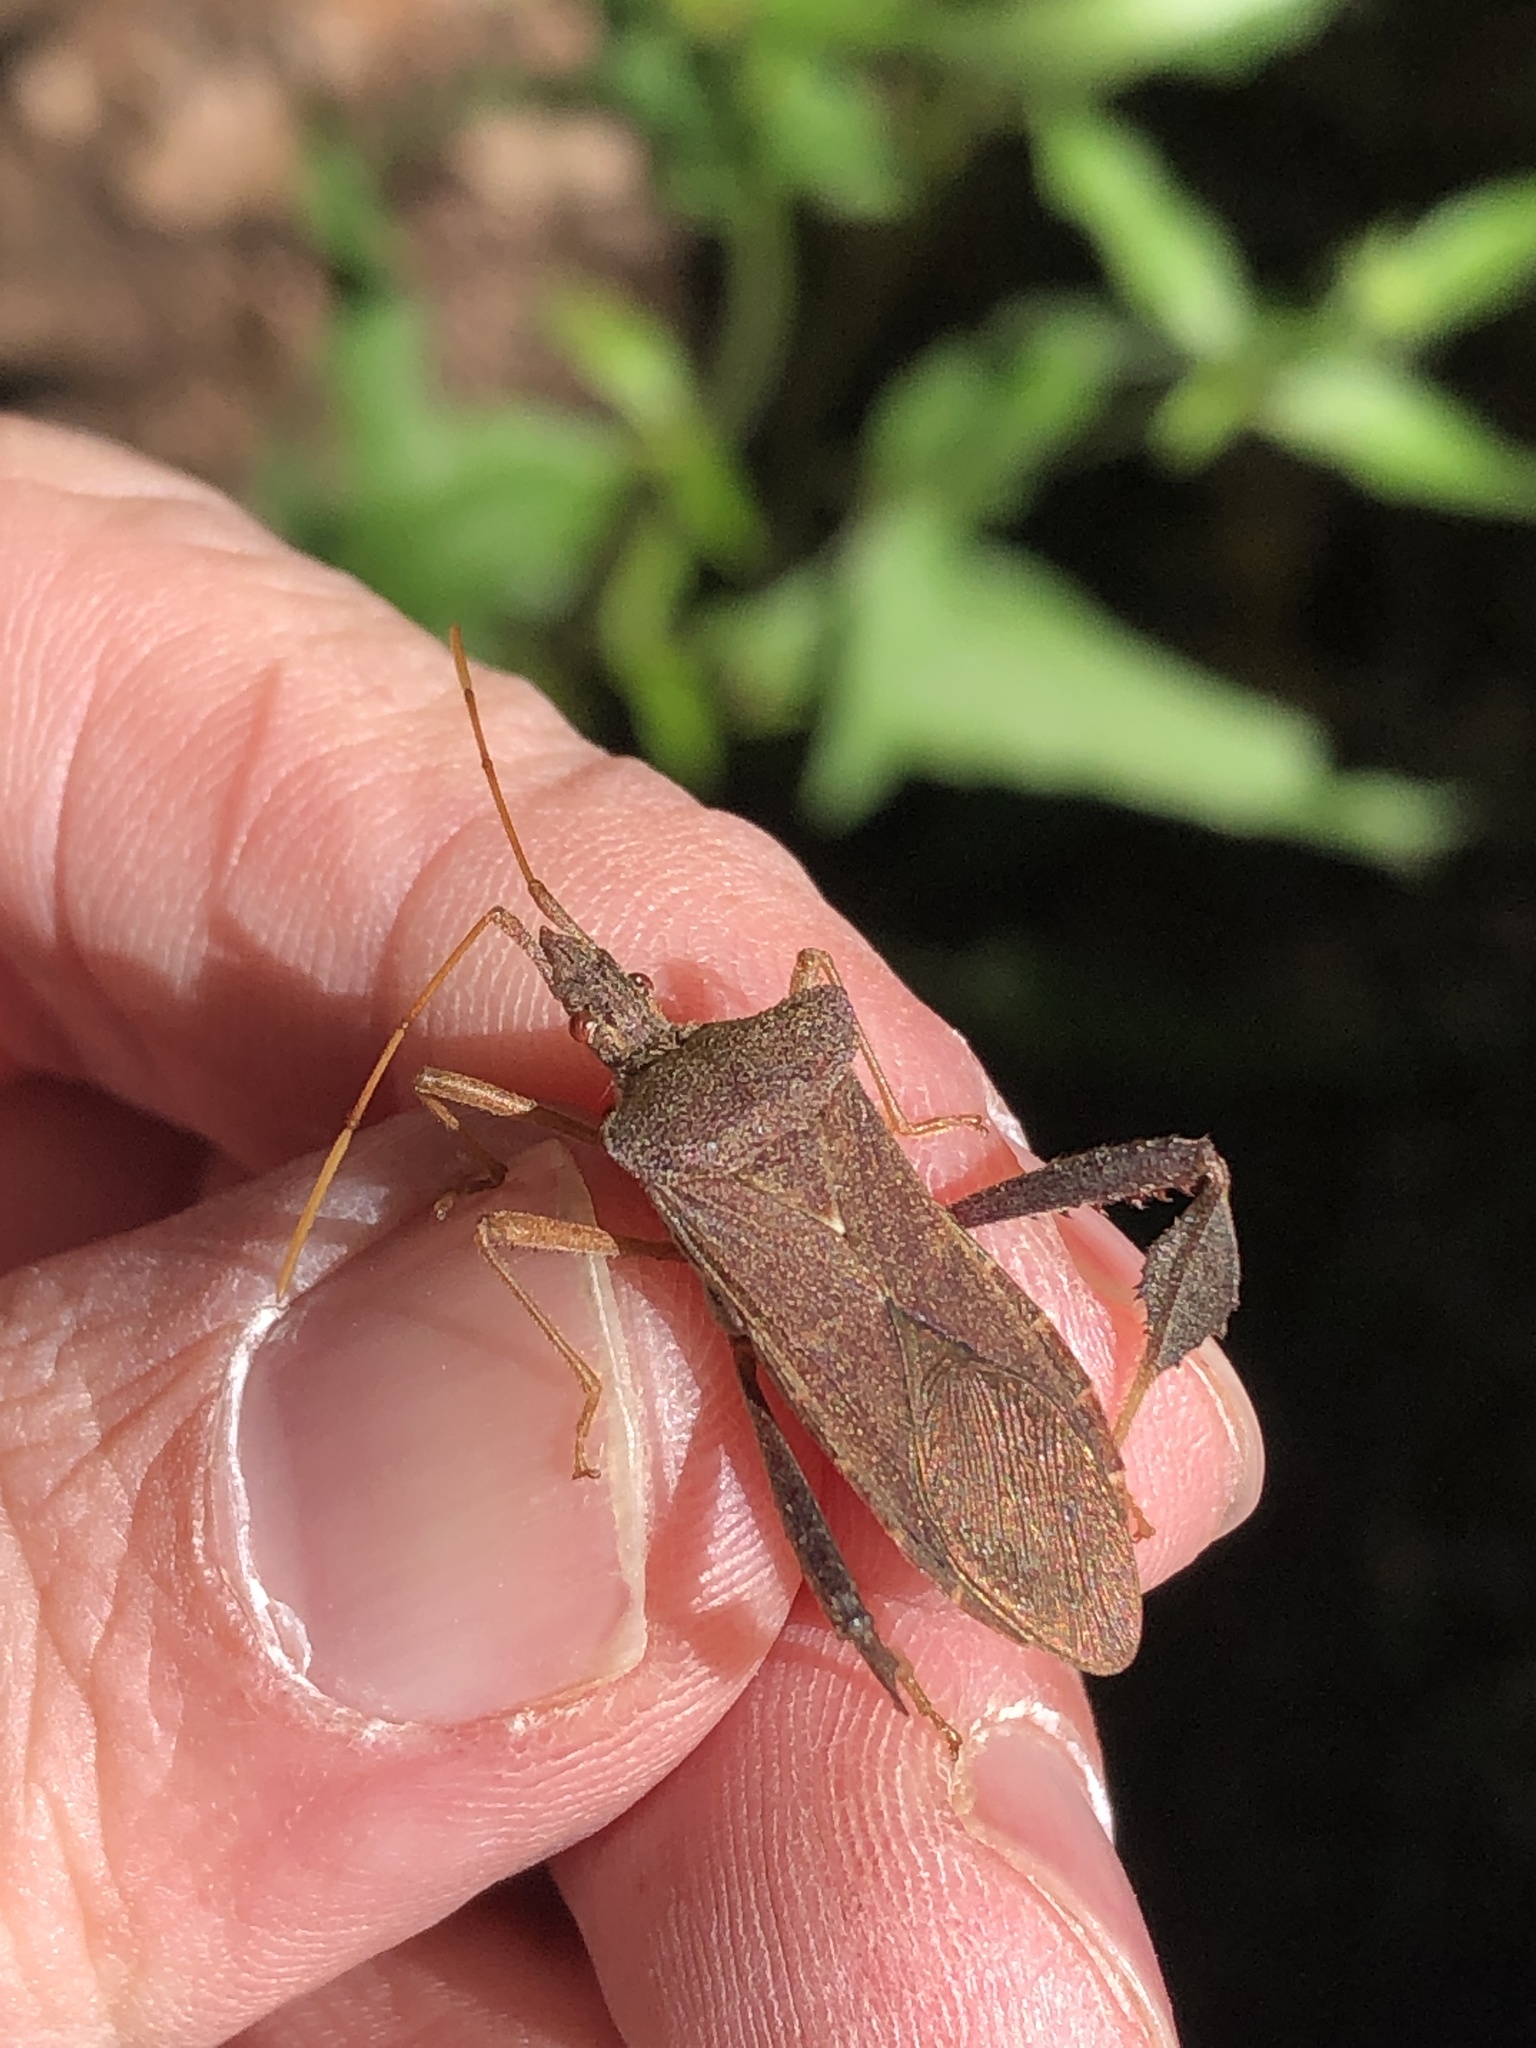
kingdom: Animalia
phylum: Arthropoda
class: Insecta
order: Hemiptera
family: Coreidae
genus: Leptoglossus
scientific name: Leptoglossus fulvicornis
